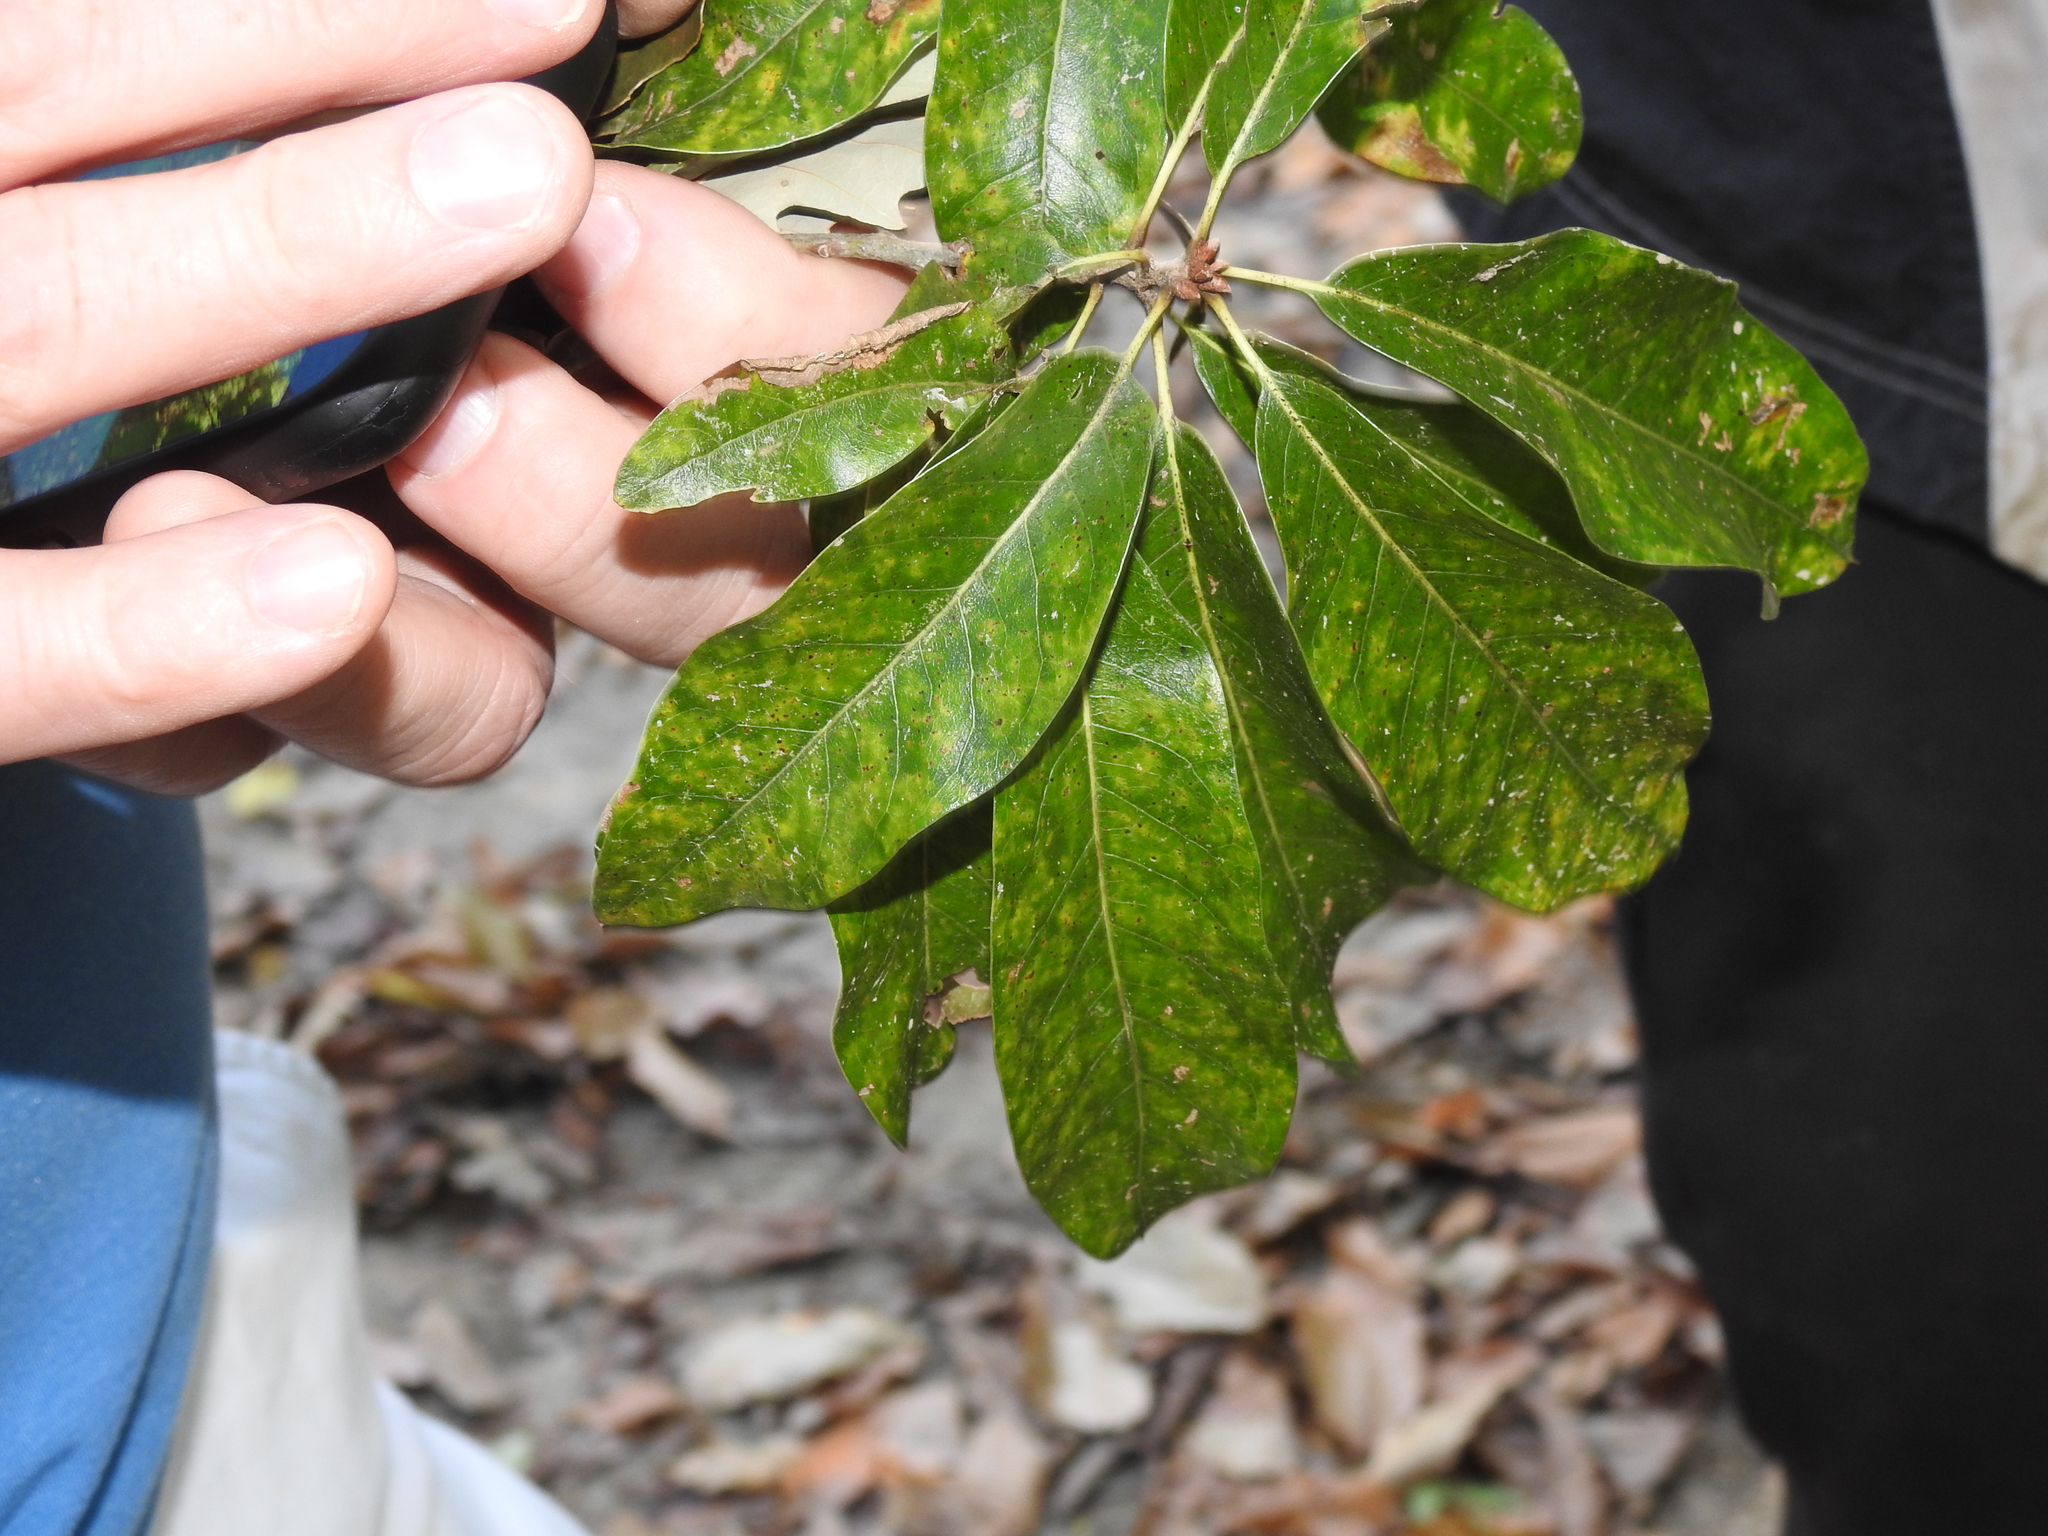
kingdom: Plantae
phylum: Tracheophyta
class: Magnoliopsida
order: Fagales
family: Fagaceae
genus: Quercus
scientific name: Quercus imbricaria
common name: Shingle oak
